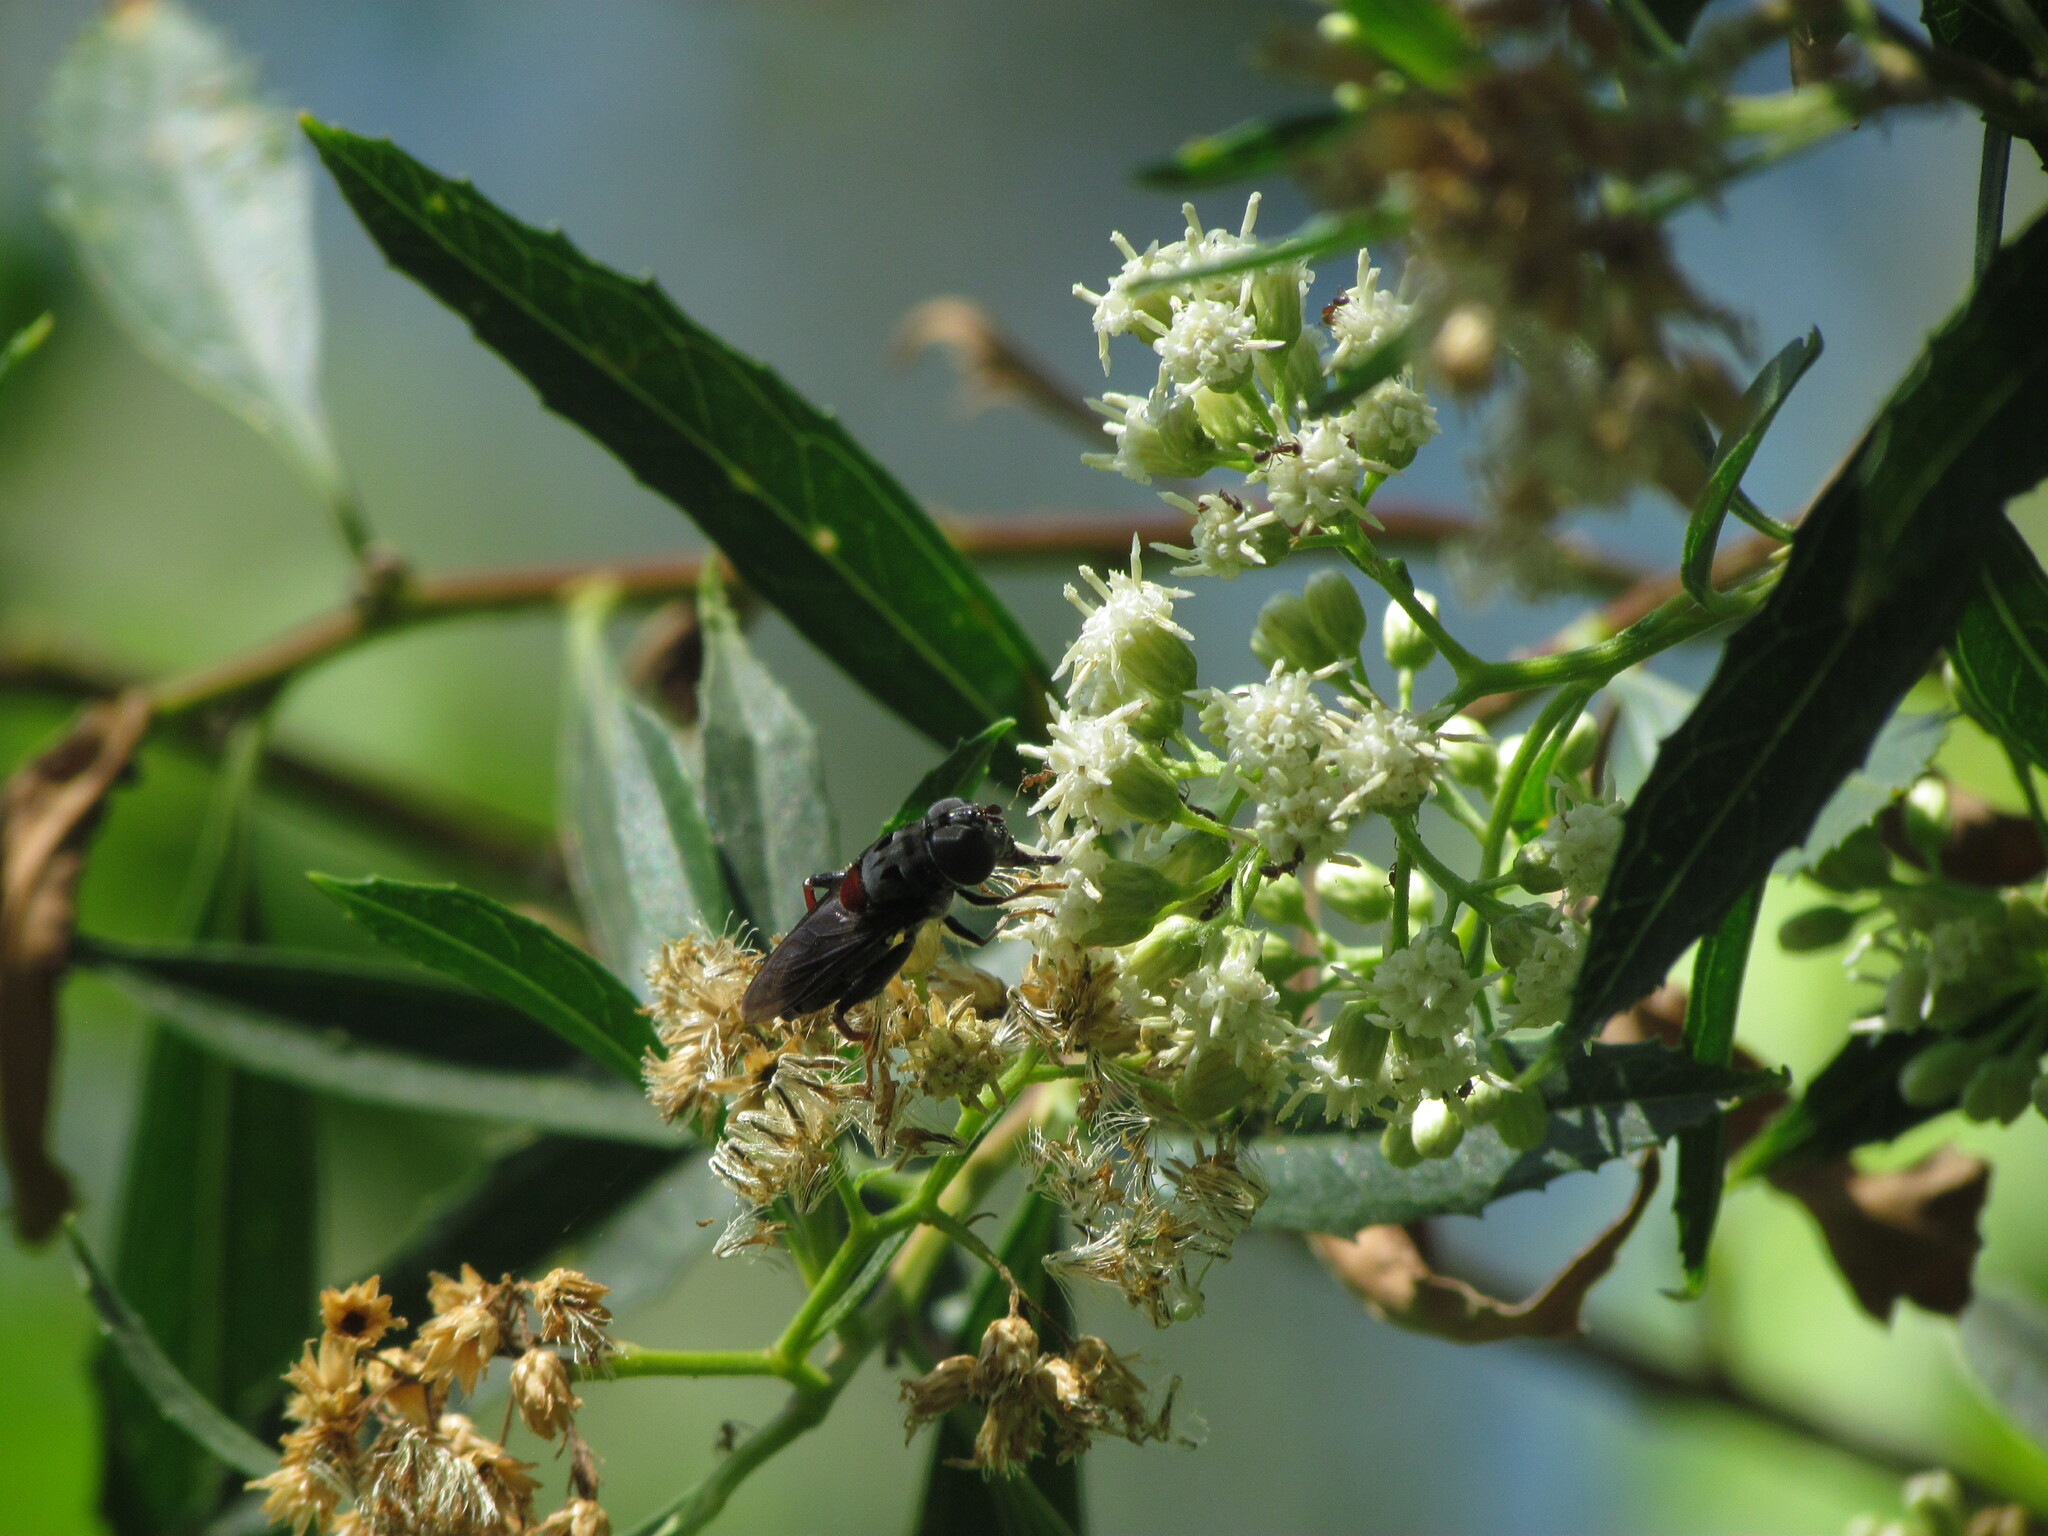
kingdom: Animalia
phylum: Arthropoda
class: Insecta
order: Diptera
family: Syrphidae
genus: Palpada
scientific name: Palpada rufoscutellata
